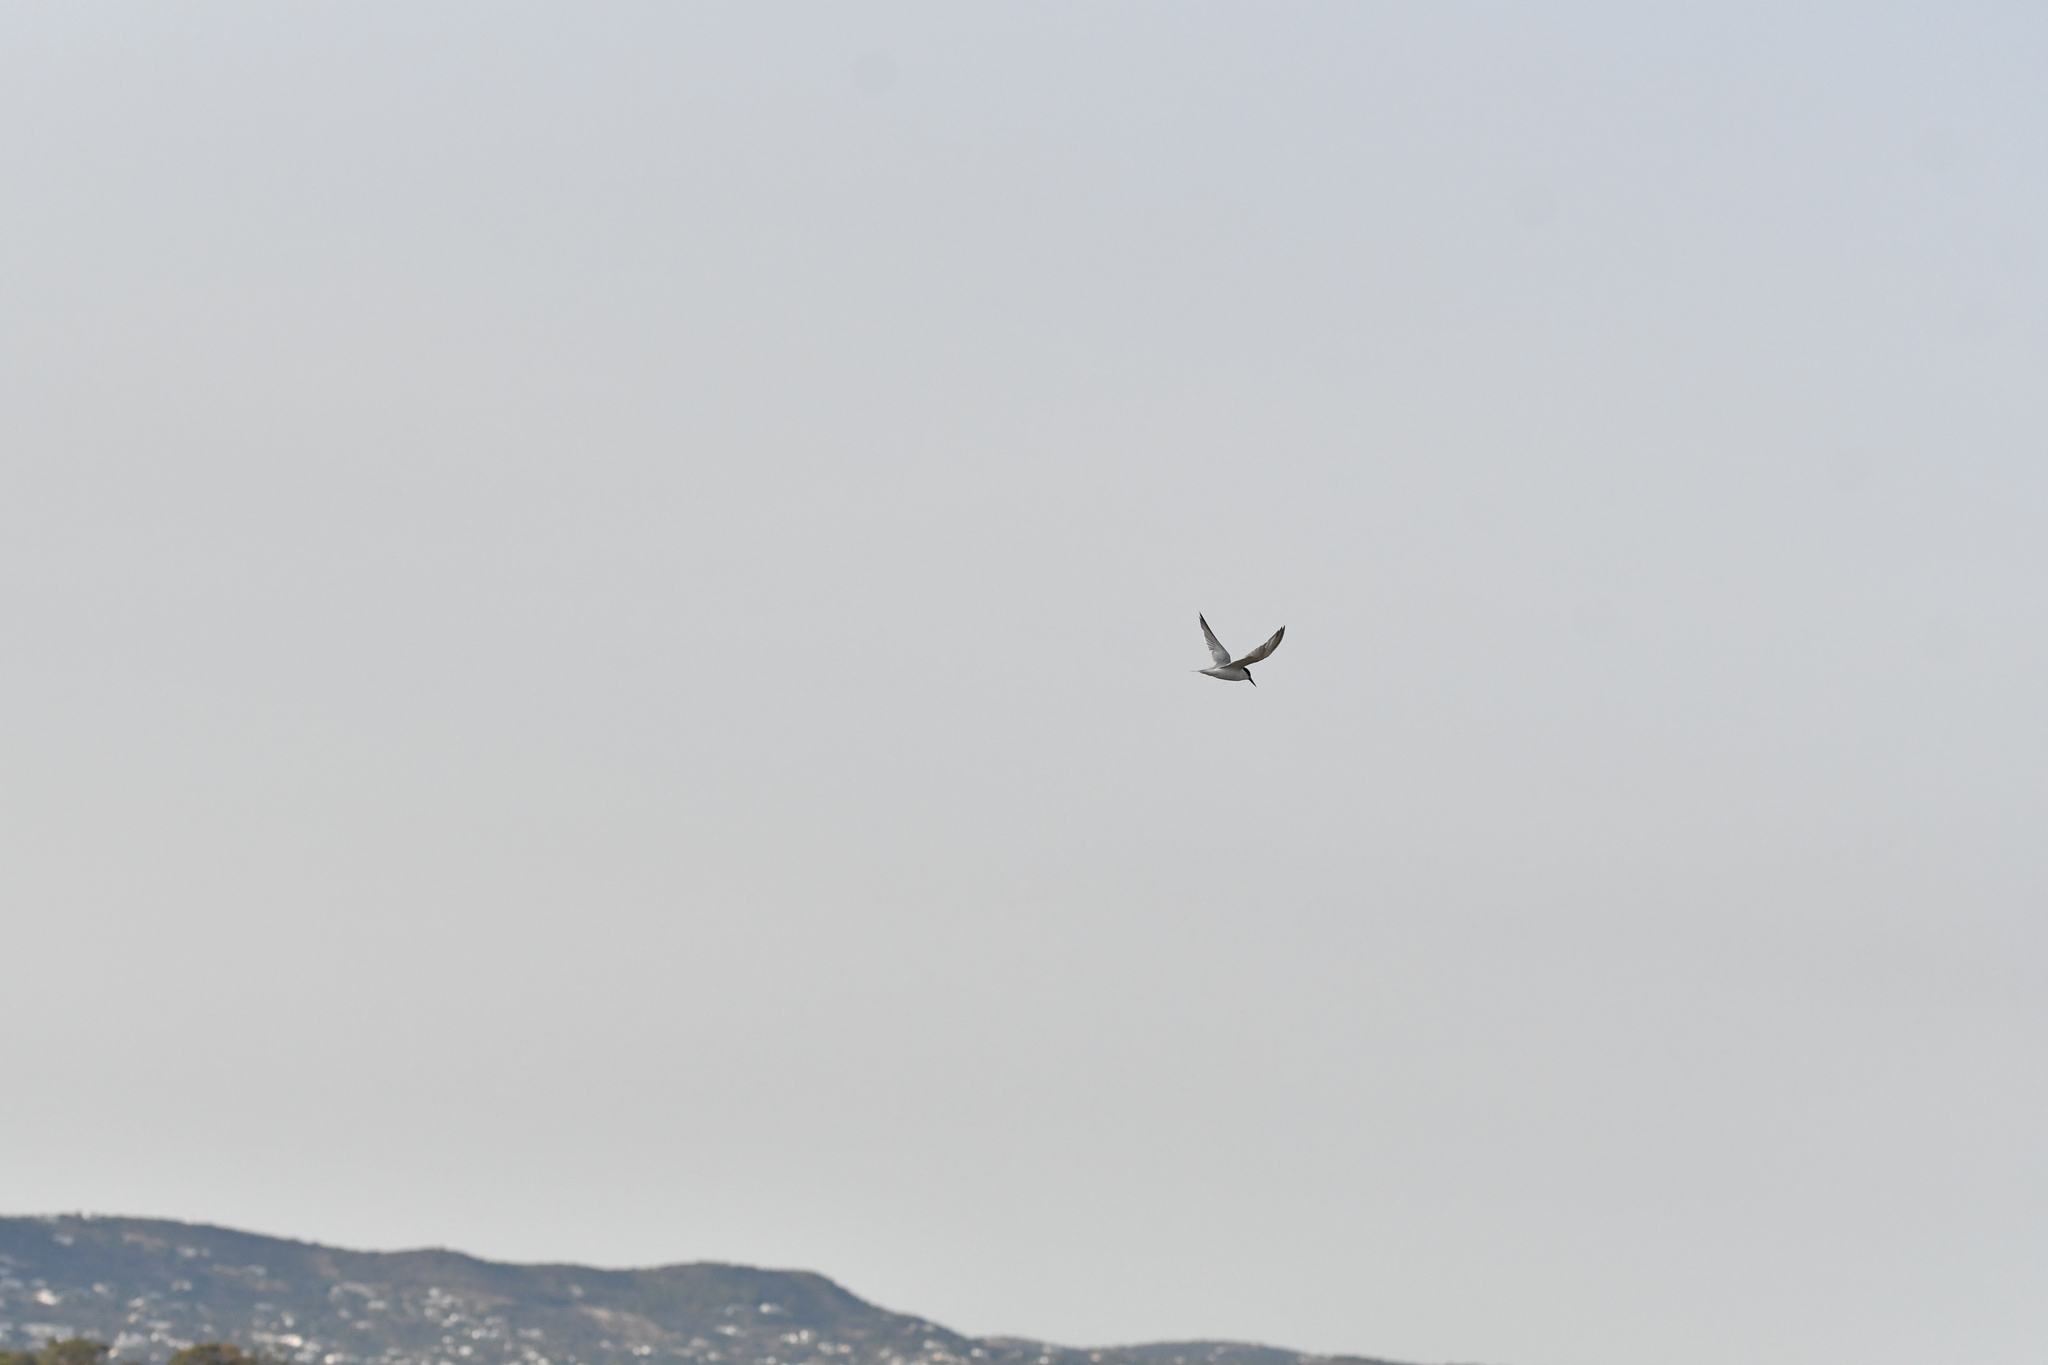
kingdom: Animalia
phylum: Chordata
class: Aves
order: Charadriiformes
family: Laridae
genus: Sternula
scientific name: Sternula albifrons
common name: Little tern
